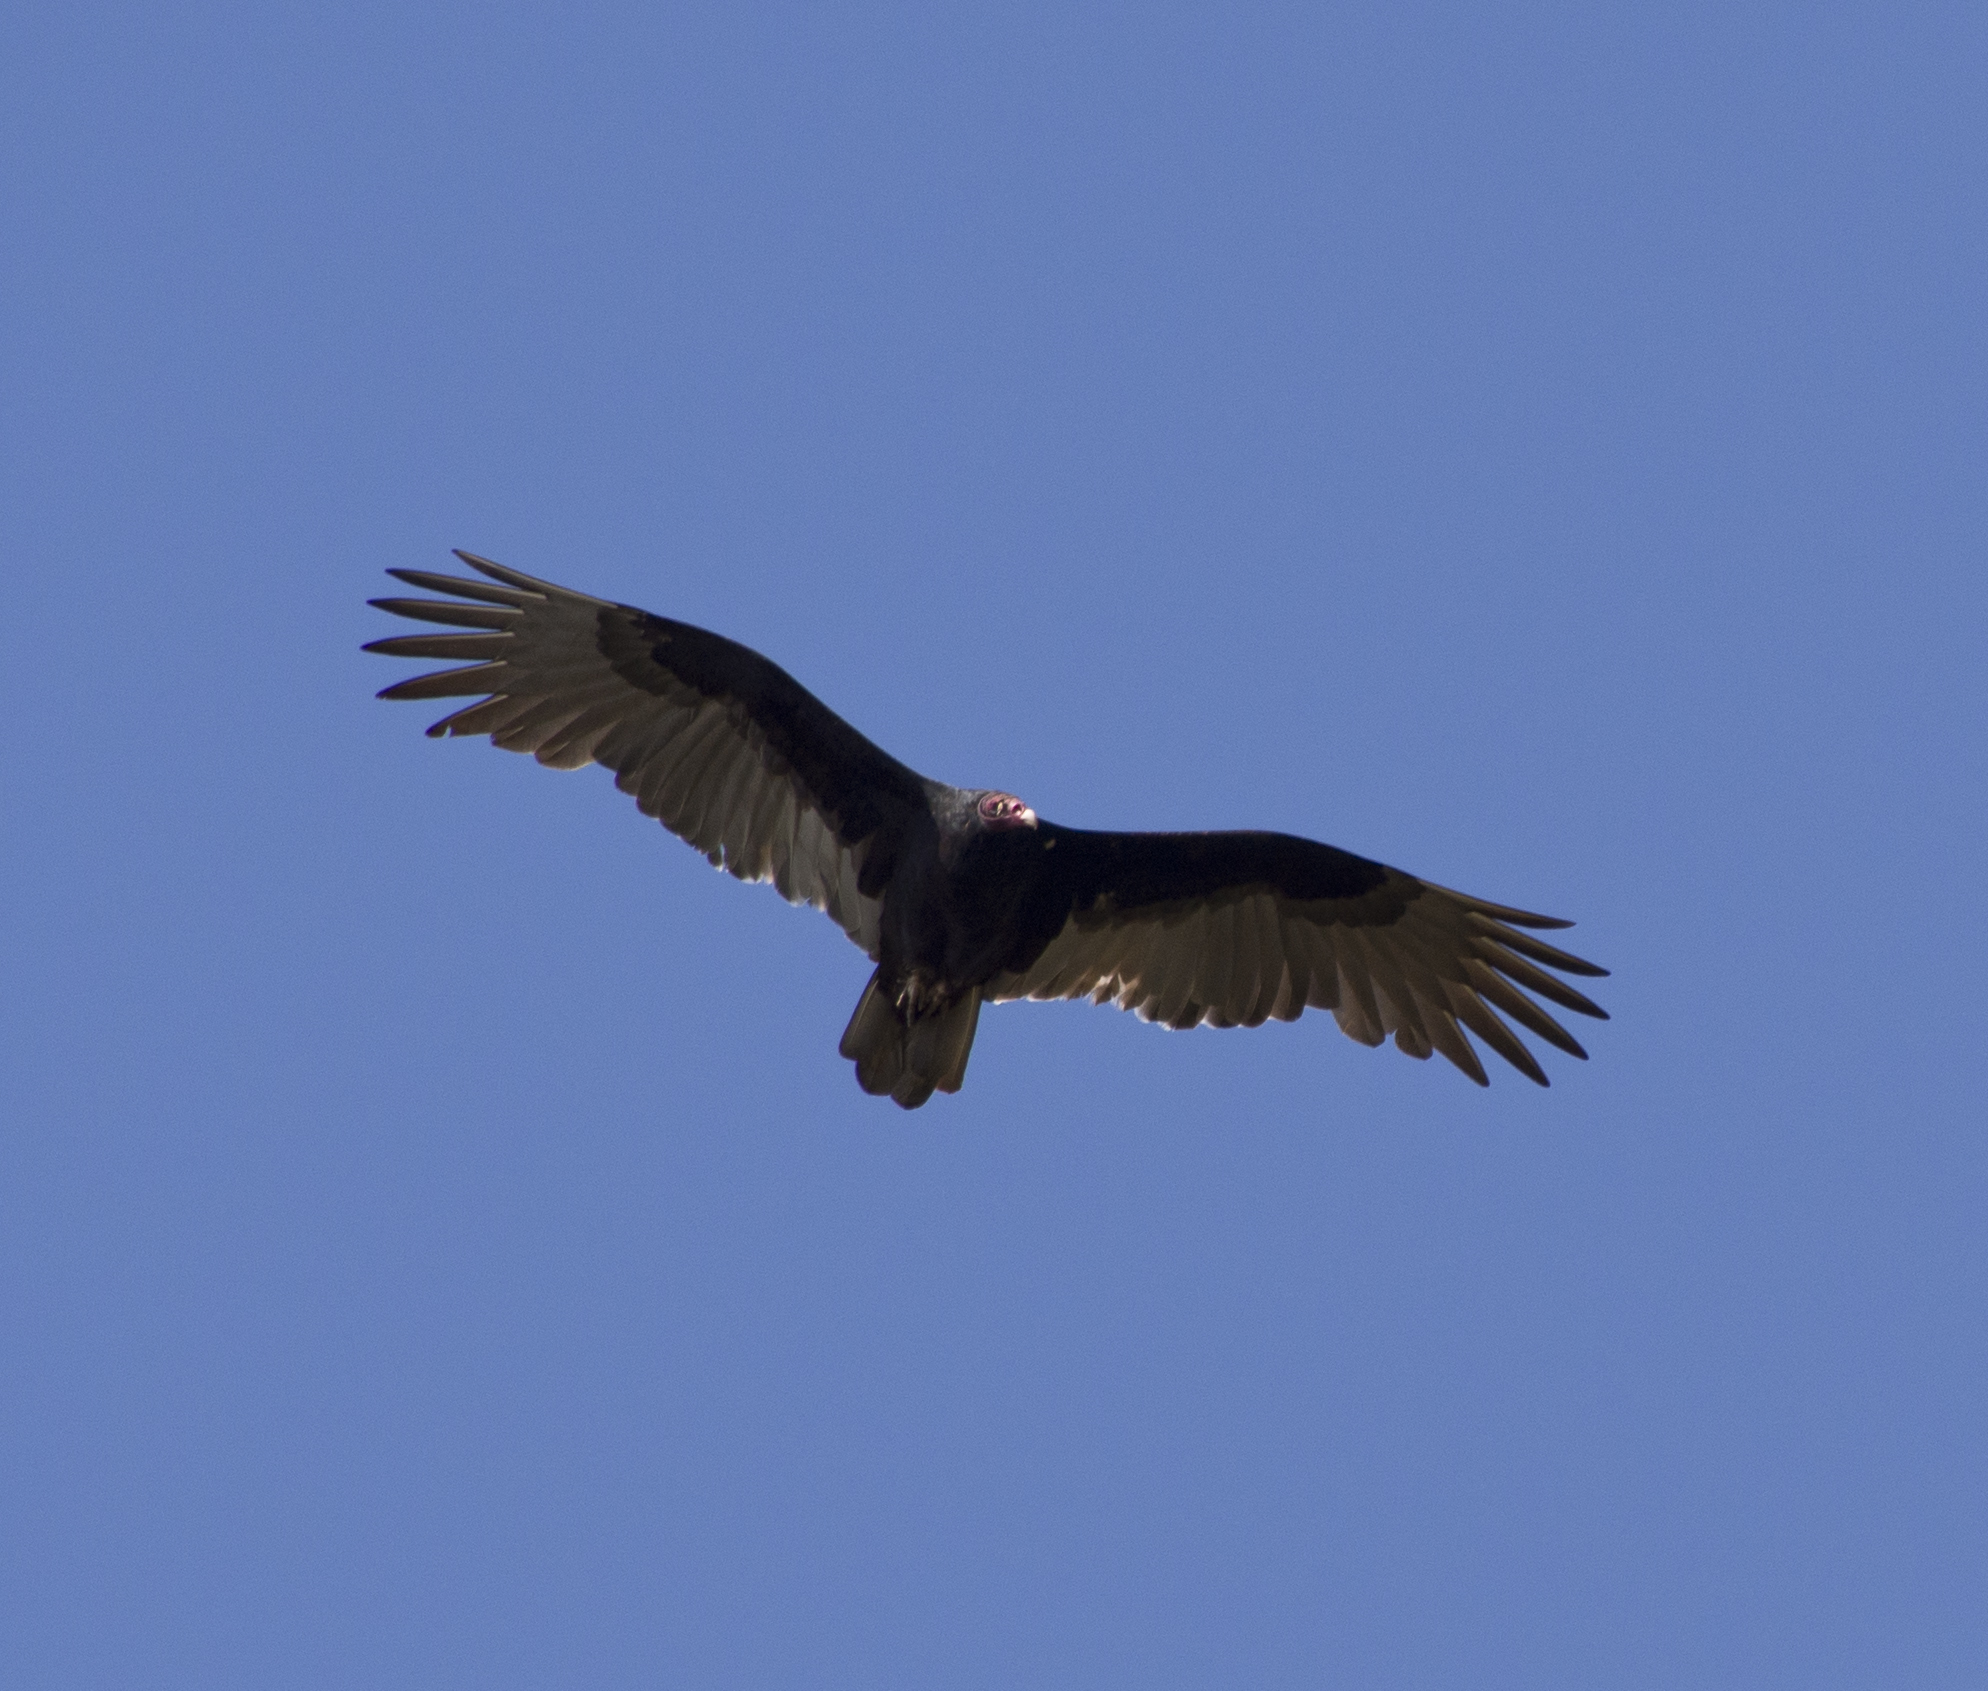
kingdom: Animalia
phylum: Chordata
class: Aves
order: Accipitriformes
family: Cathartidae
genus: Cathartes
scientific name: Cathartes aura
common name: Turkey vulture
